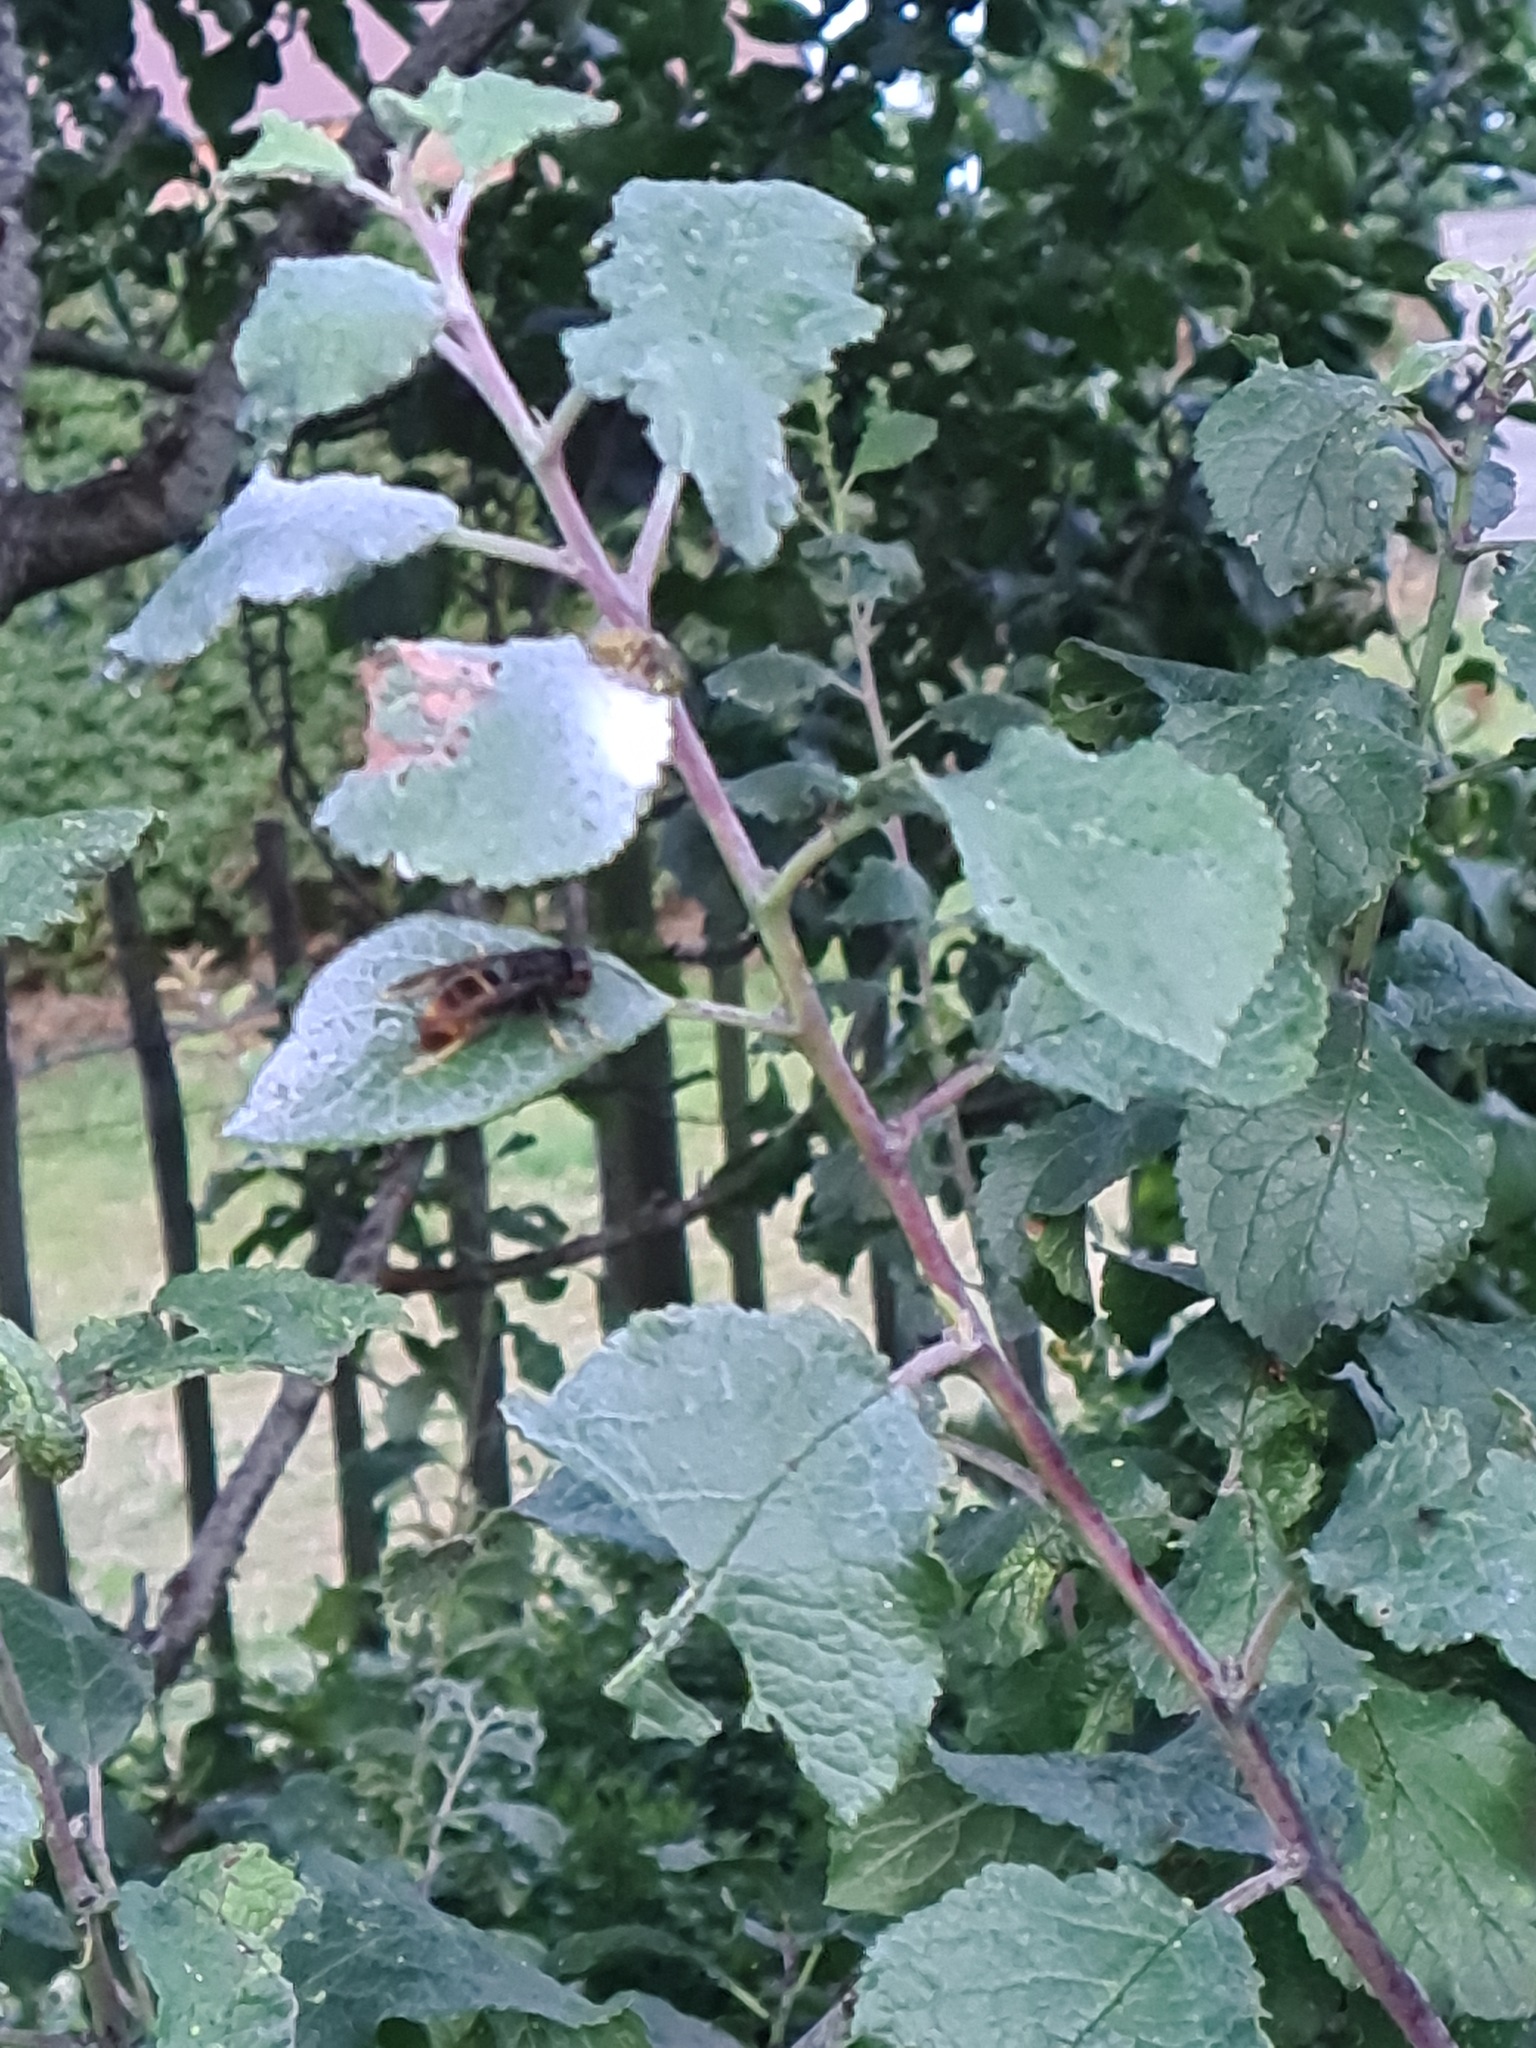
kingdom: Animalia
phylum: Arthropoda
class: Insecta
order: Hymenoptera
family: Vespidae
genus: Vespa
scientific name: Vespa velutina
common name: Asian hornet
